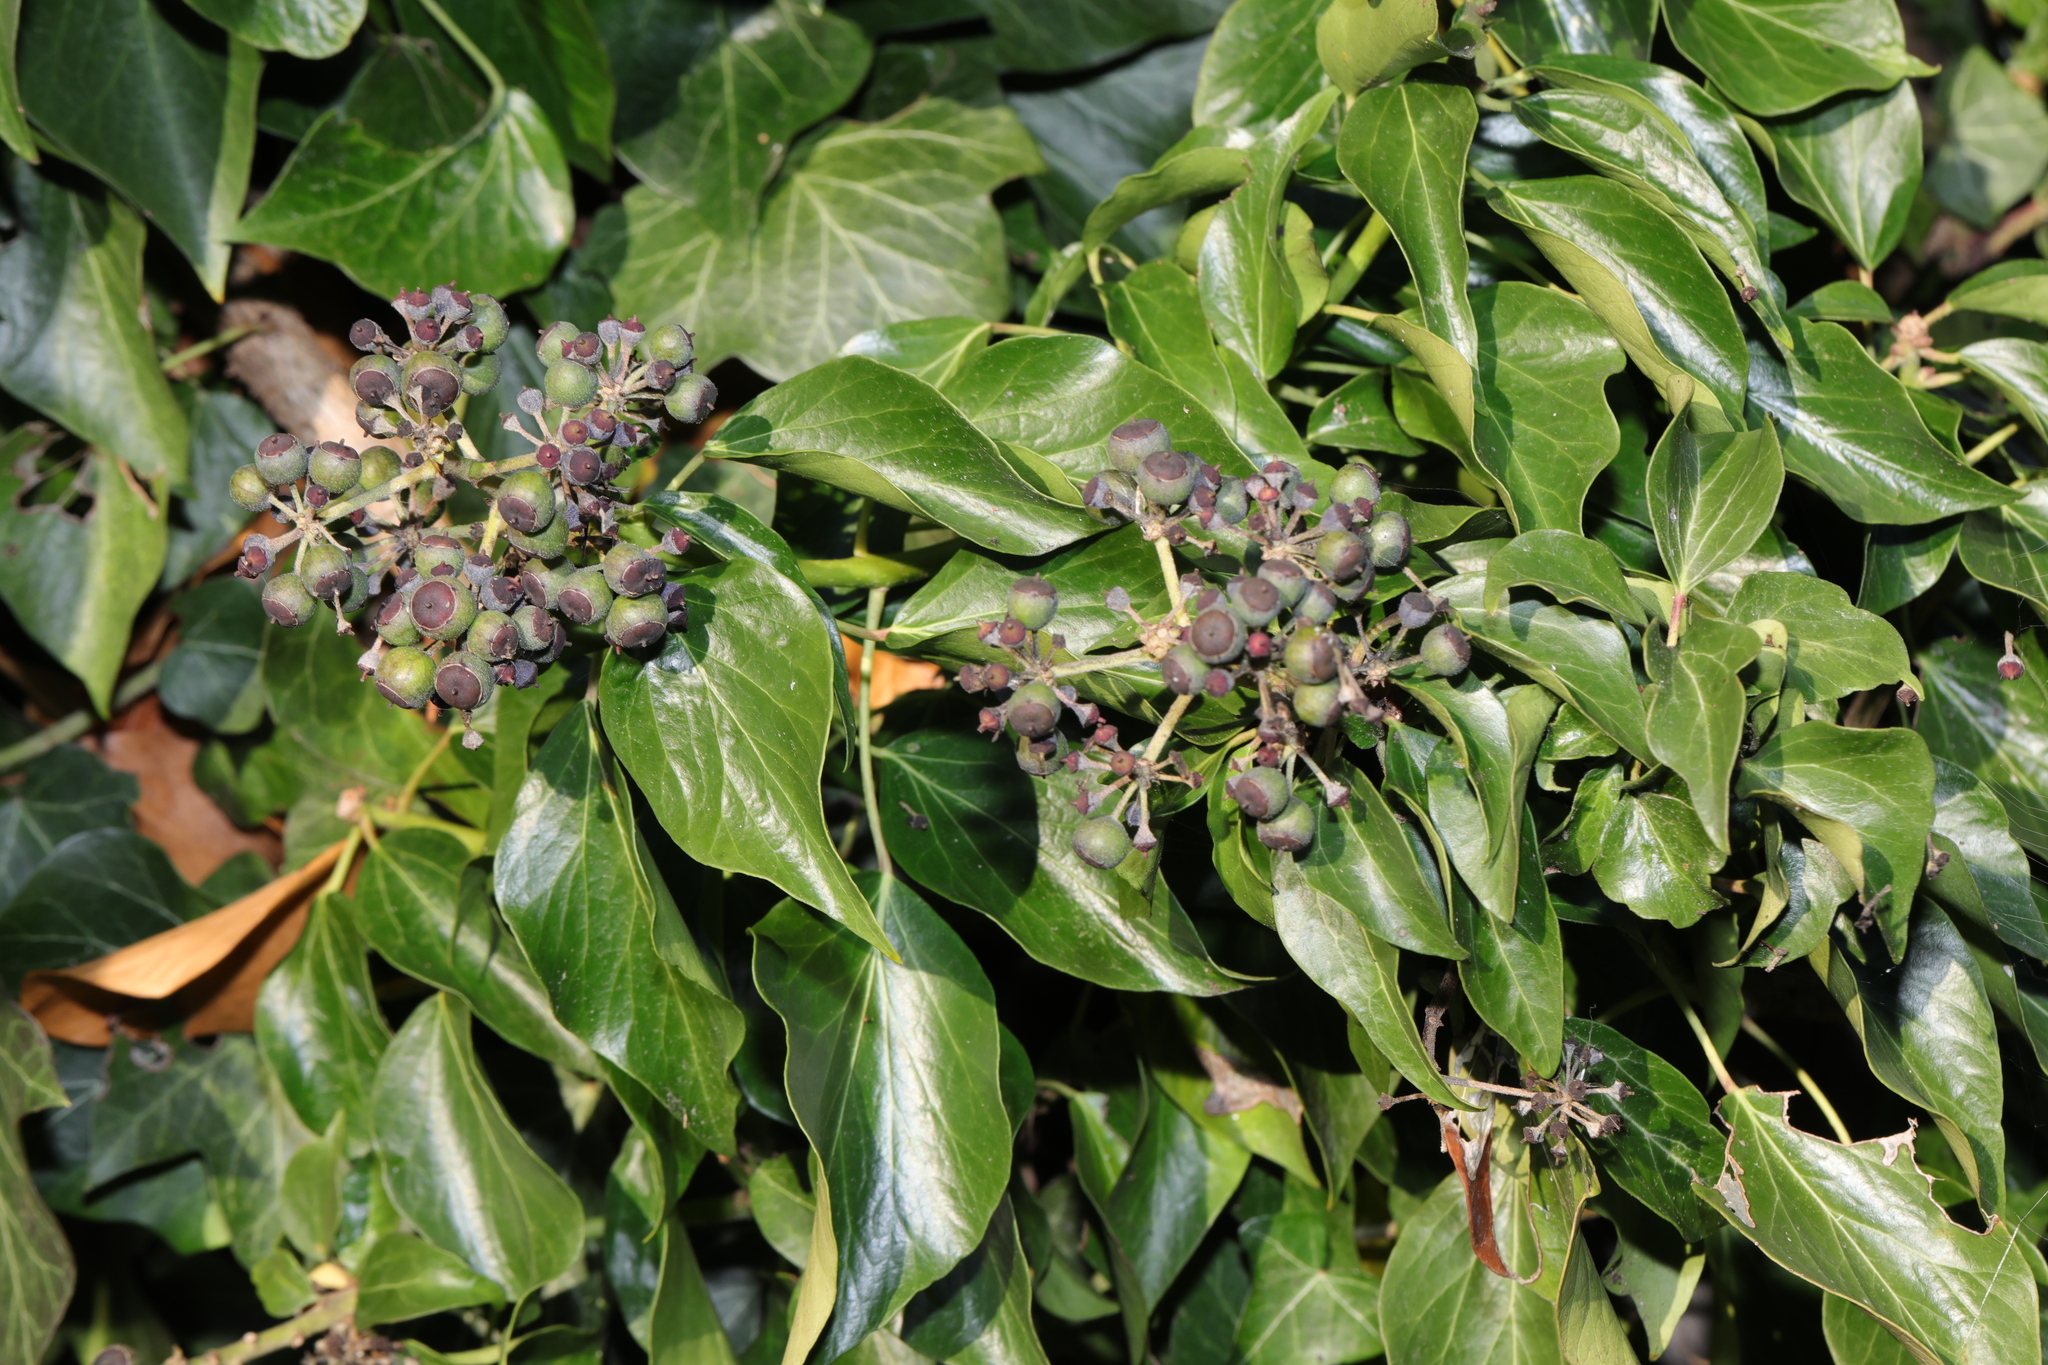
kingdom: Plantae
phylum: Tracheophyta
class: Magnoliopsida
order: Apiales
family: Araliaceae
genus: Hedera
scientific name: Hedera helix
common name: Ivy
